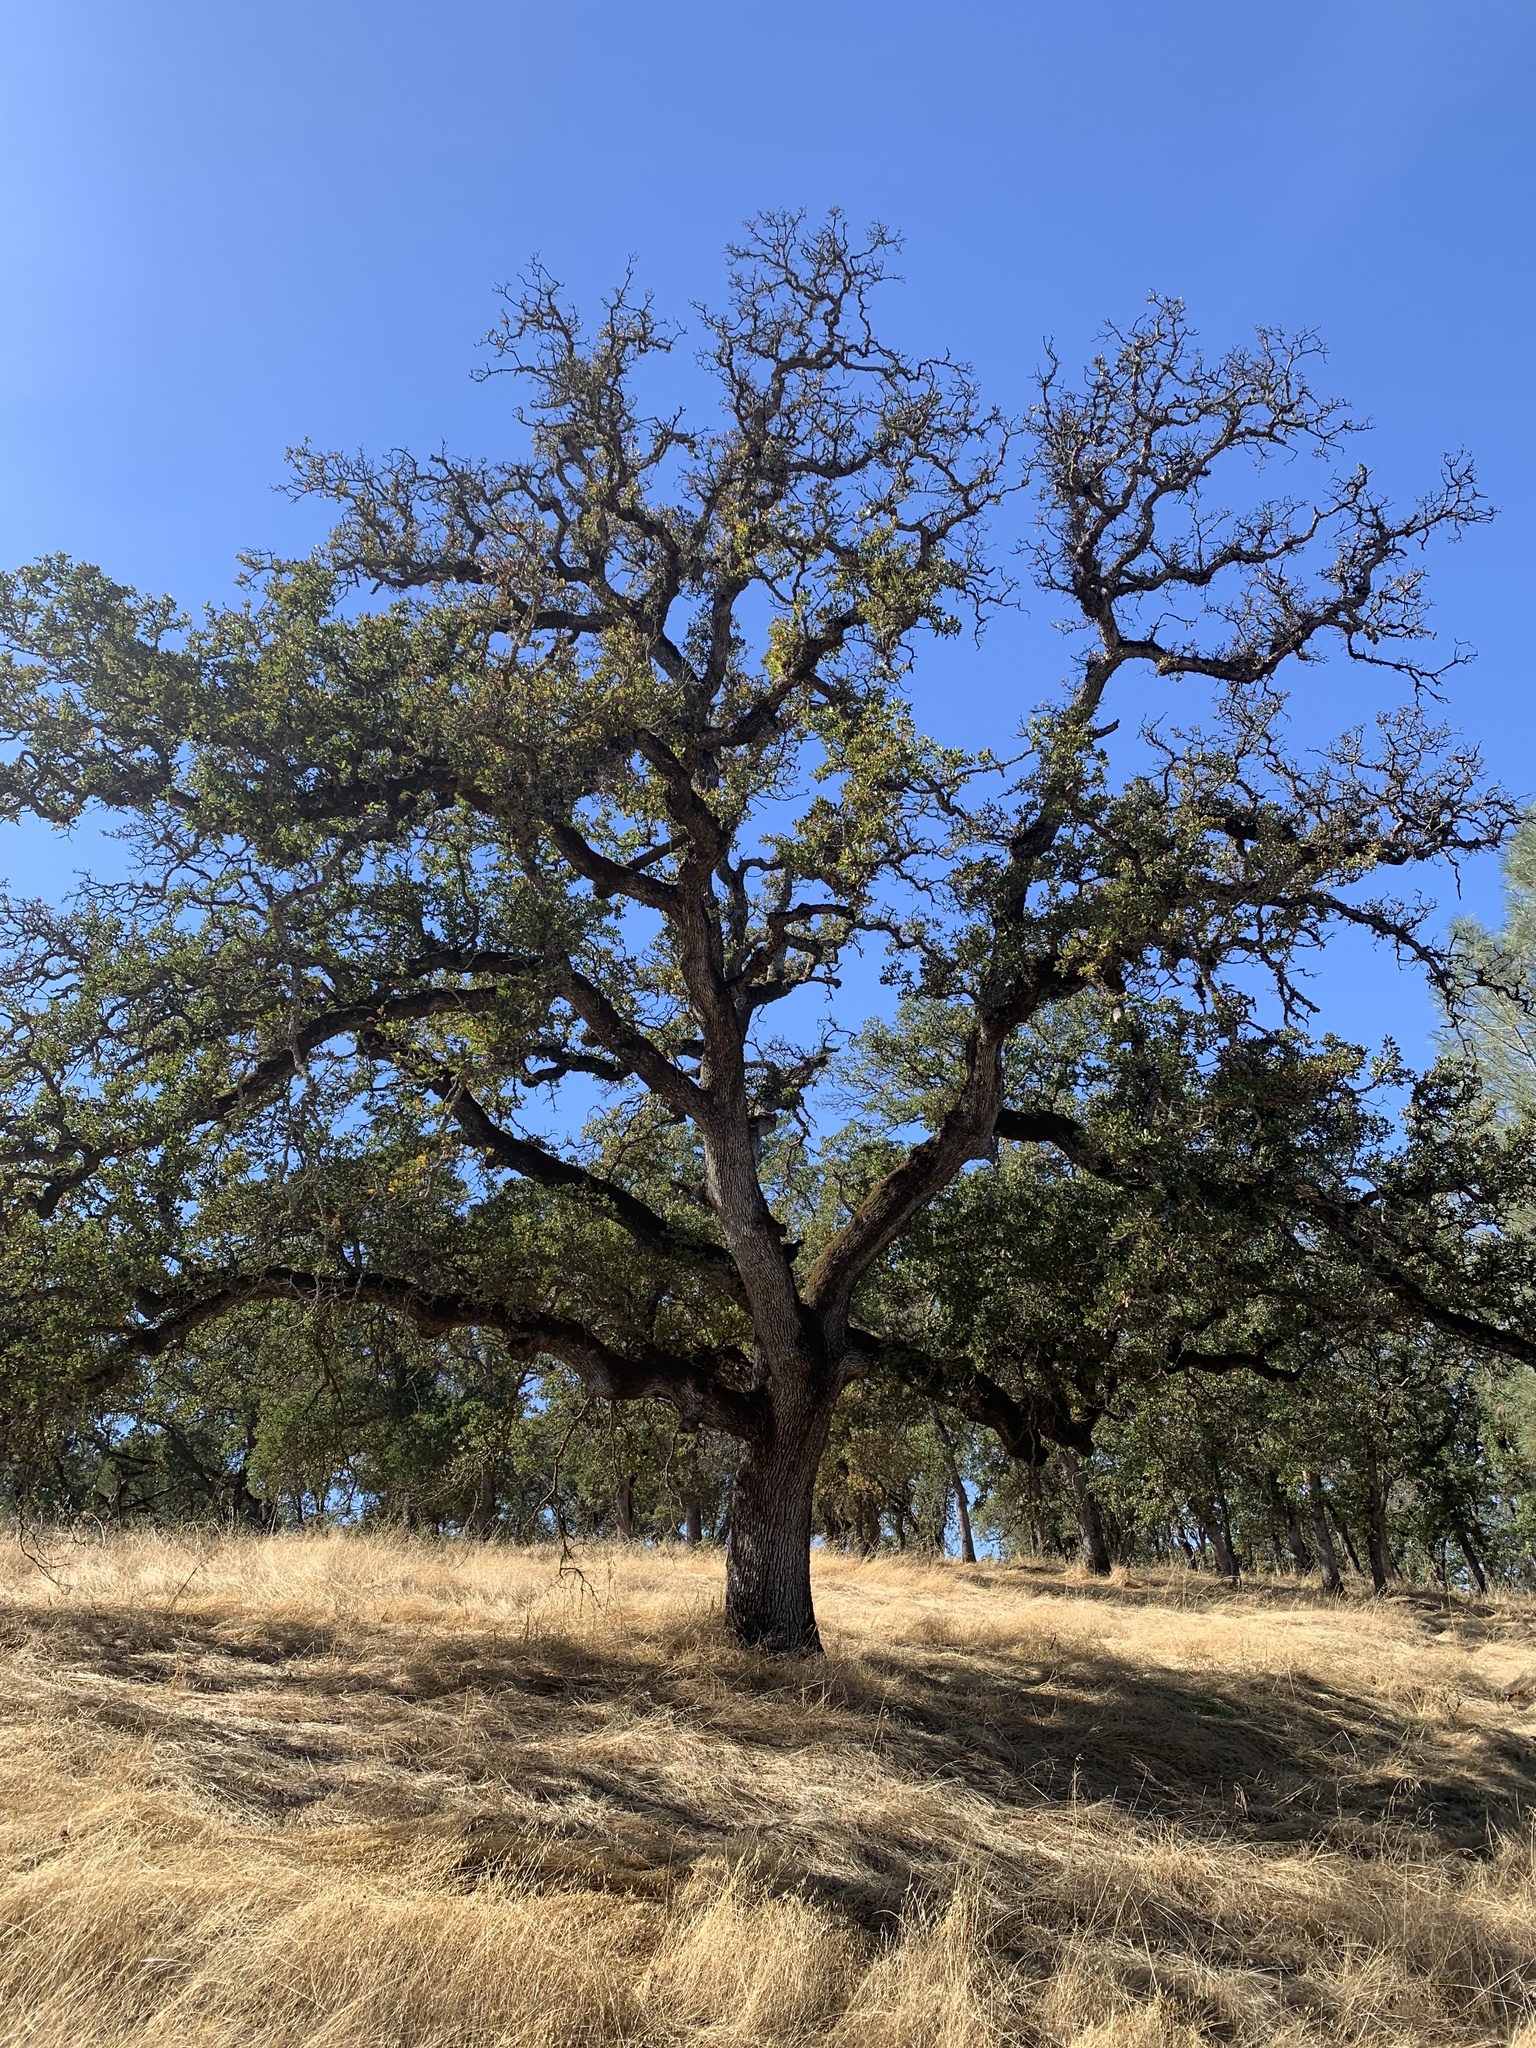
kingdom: Plantae
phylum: Tracheophyta
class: Magnoliopsida
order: Fagales
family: Fagaceae
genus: Quercus
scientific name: Quercus douglasii
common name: Blue oak
